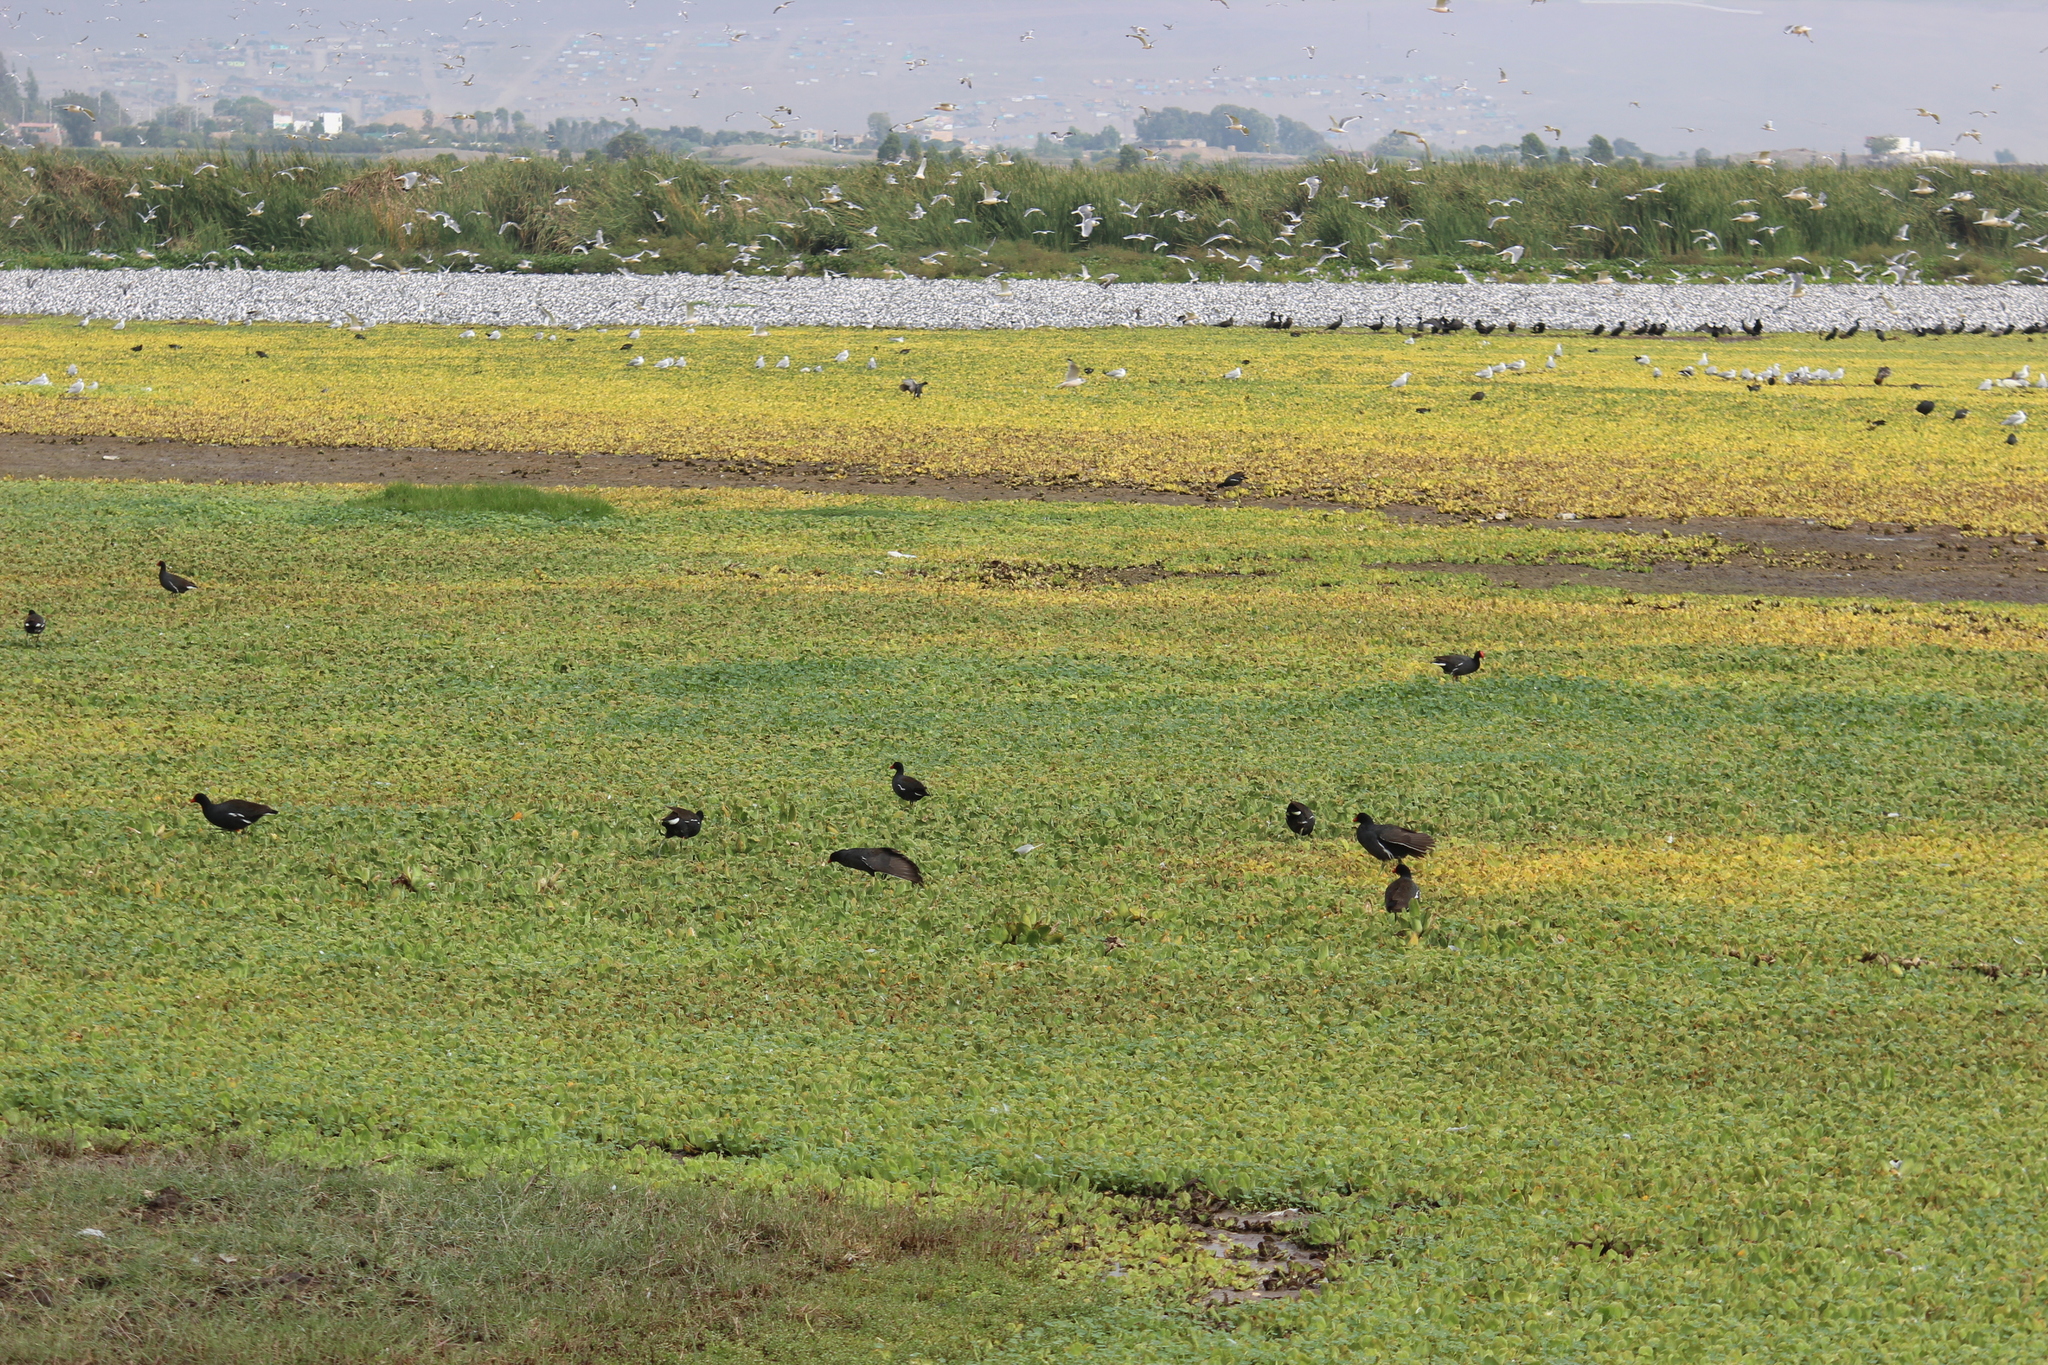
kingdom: Animalia
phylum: Chordata
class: Aves
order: Gruiformes
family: Rallidae
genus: Gallinula
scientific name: Gallinula chloropus
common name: Common moorhen
